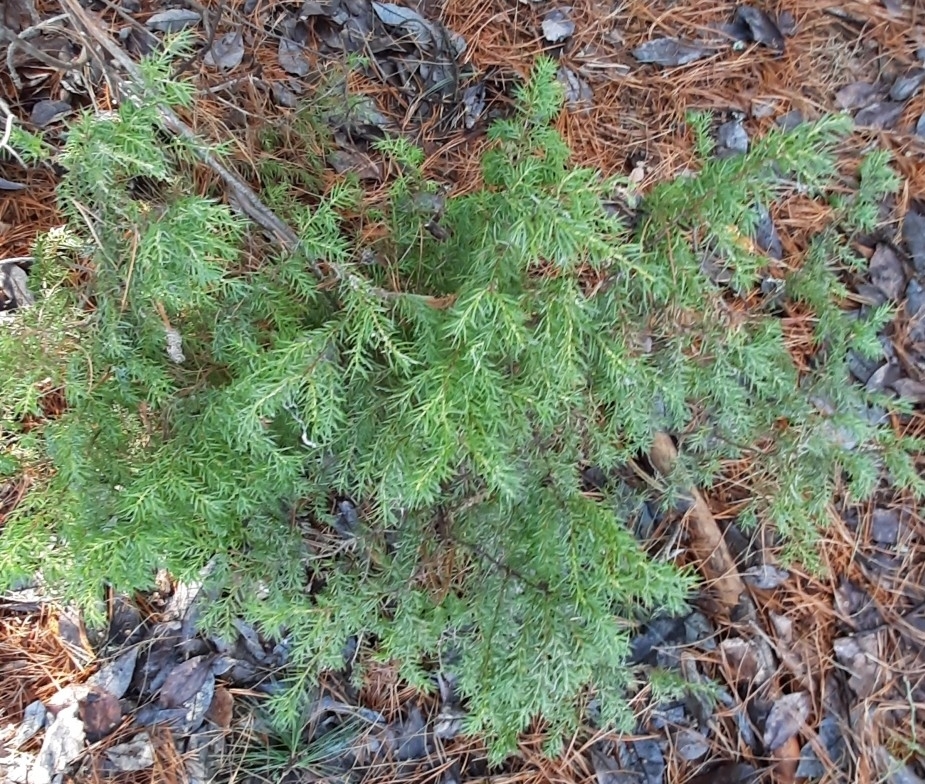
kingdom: Plantae
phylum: Tracheophyta
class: Pinopsida
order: Pinales
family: Cupressaceae
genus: Juniperus
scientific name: Juniperus communis
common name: Common juniper
